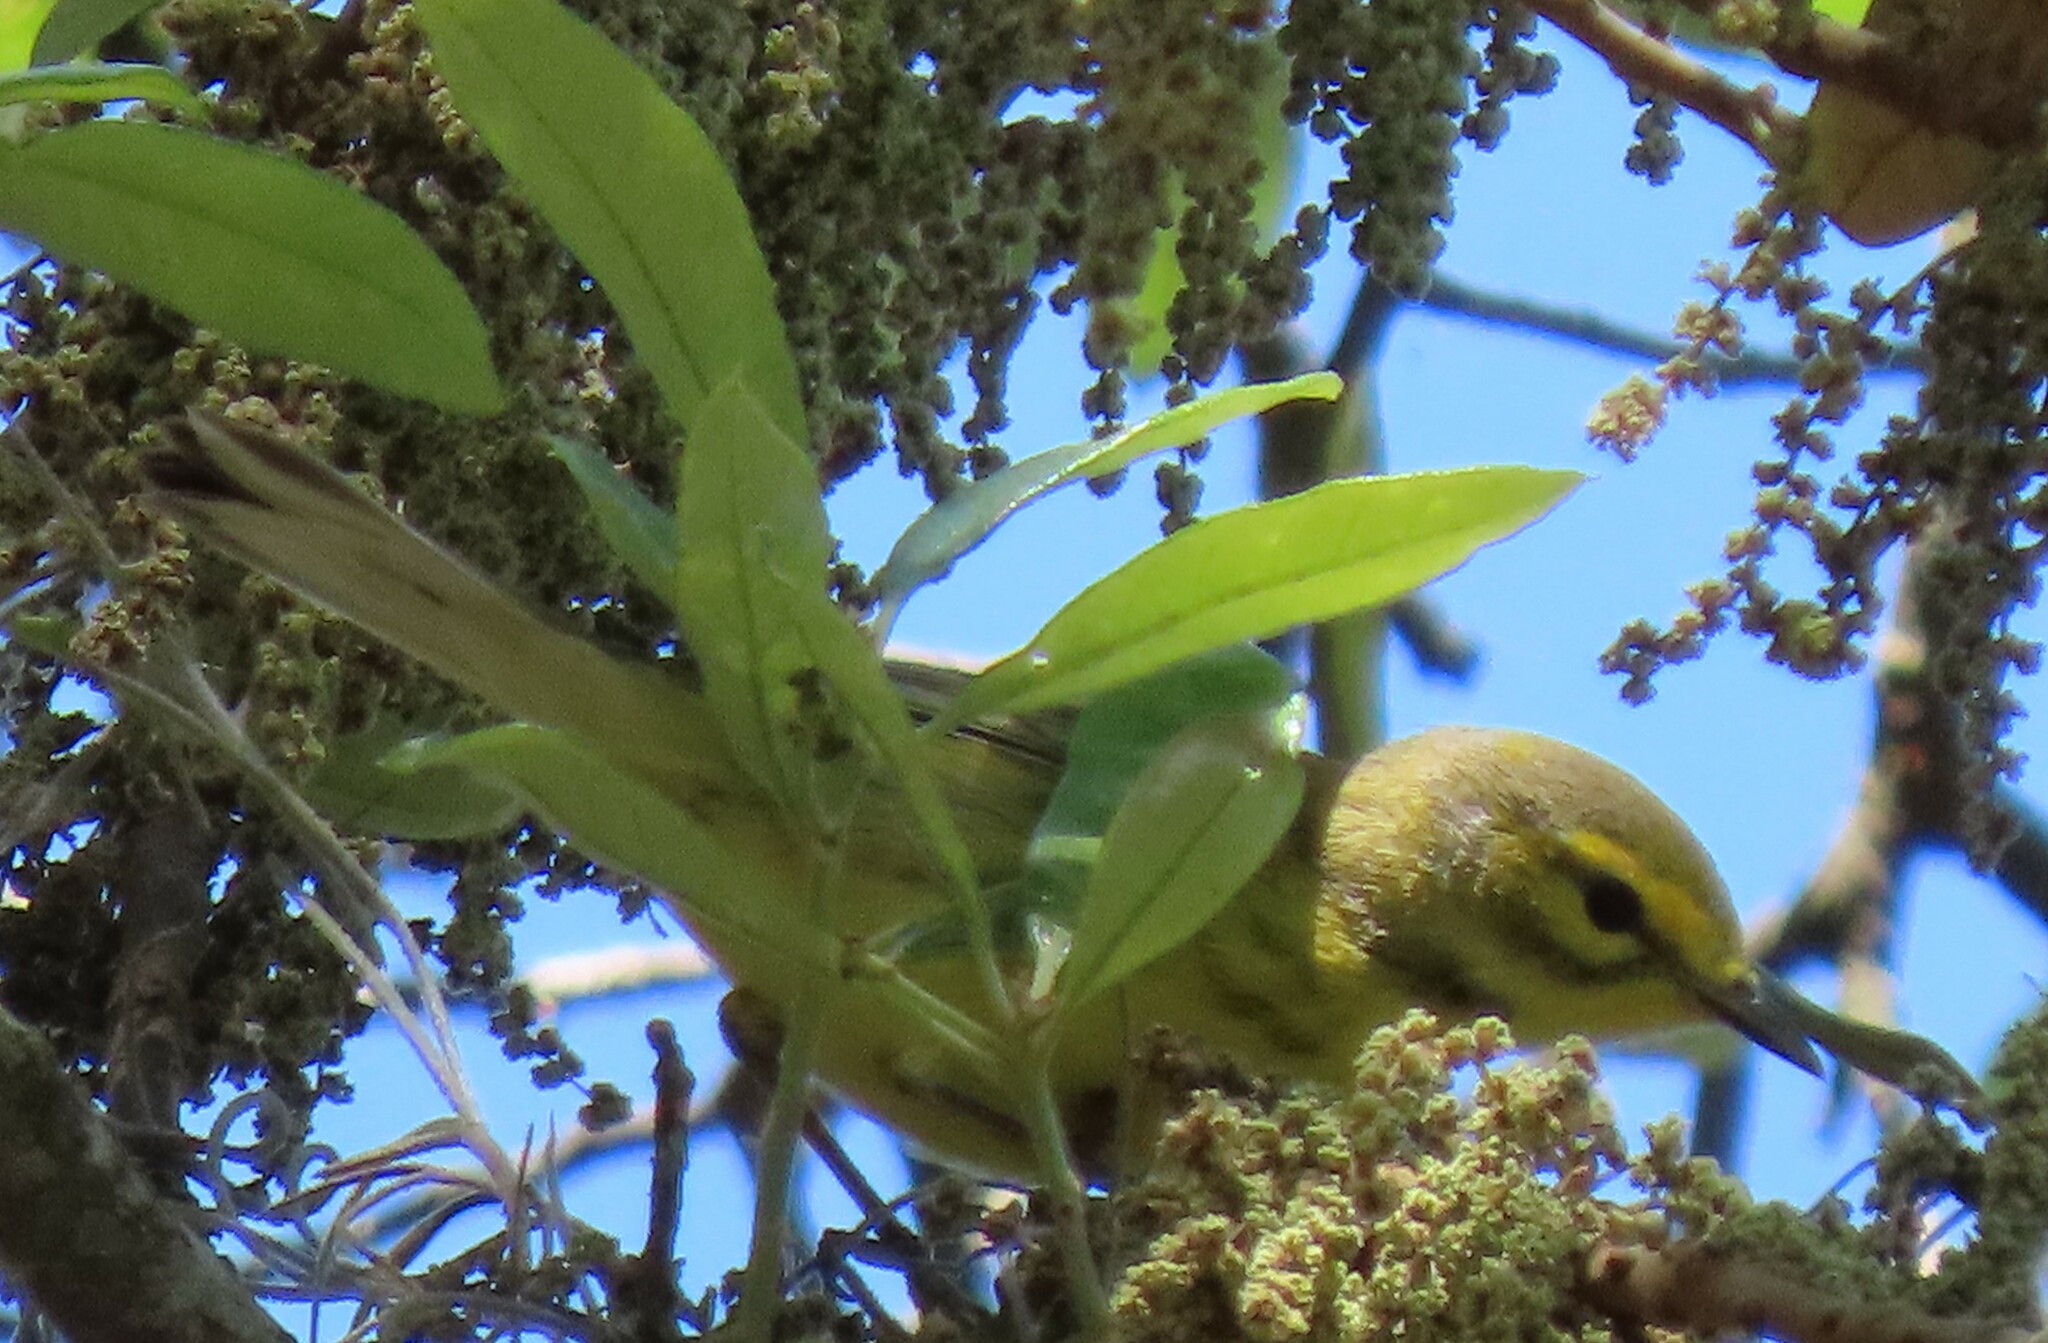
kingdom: Animalia
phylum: Chordata
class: Aves
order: Passeriformes
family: Parulidae
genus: Setophaga
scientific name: Setophaga discolor
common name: Prairie warbler
